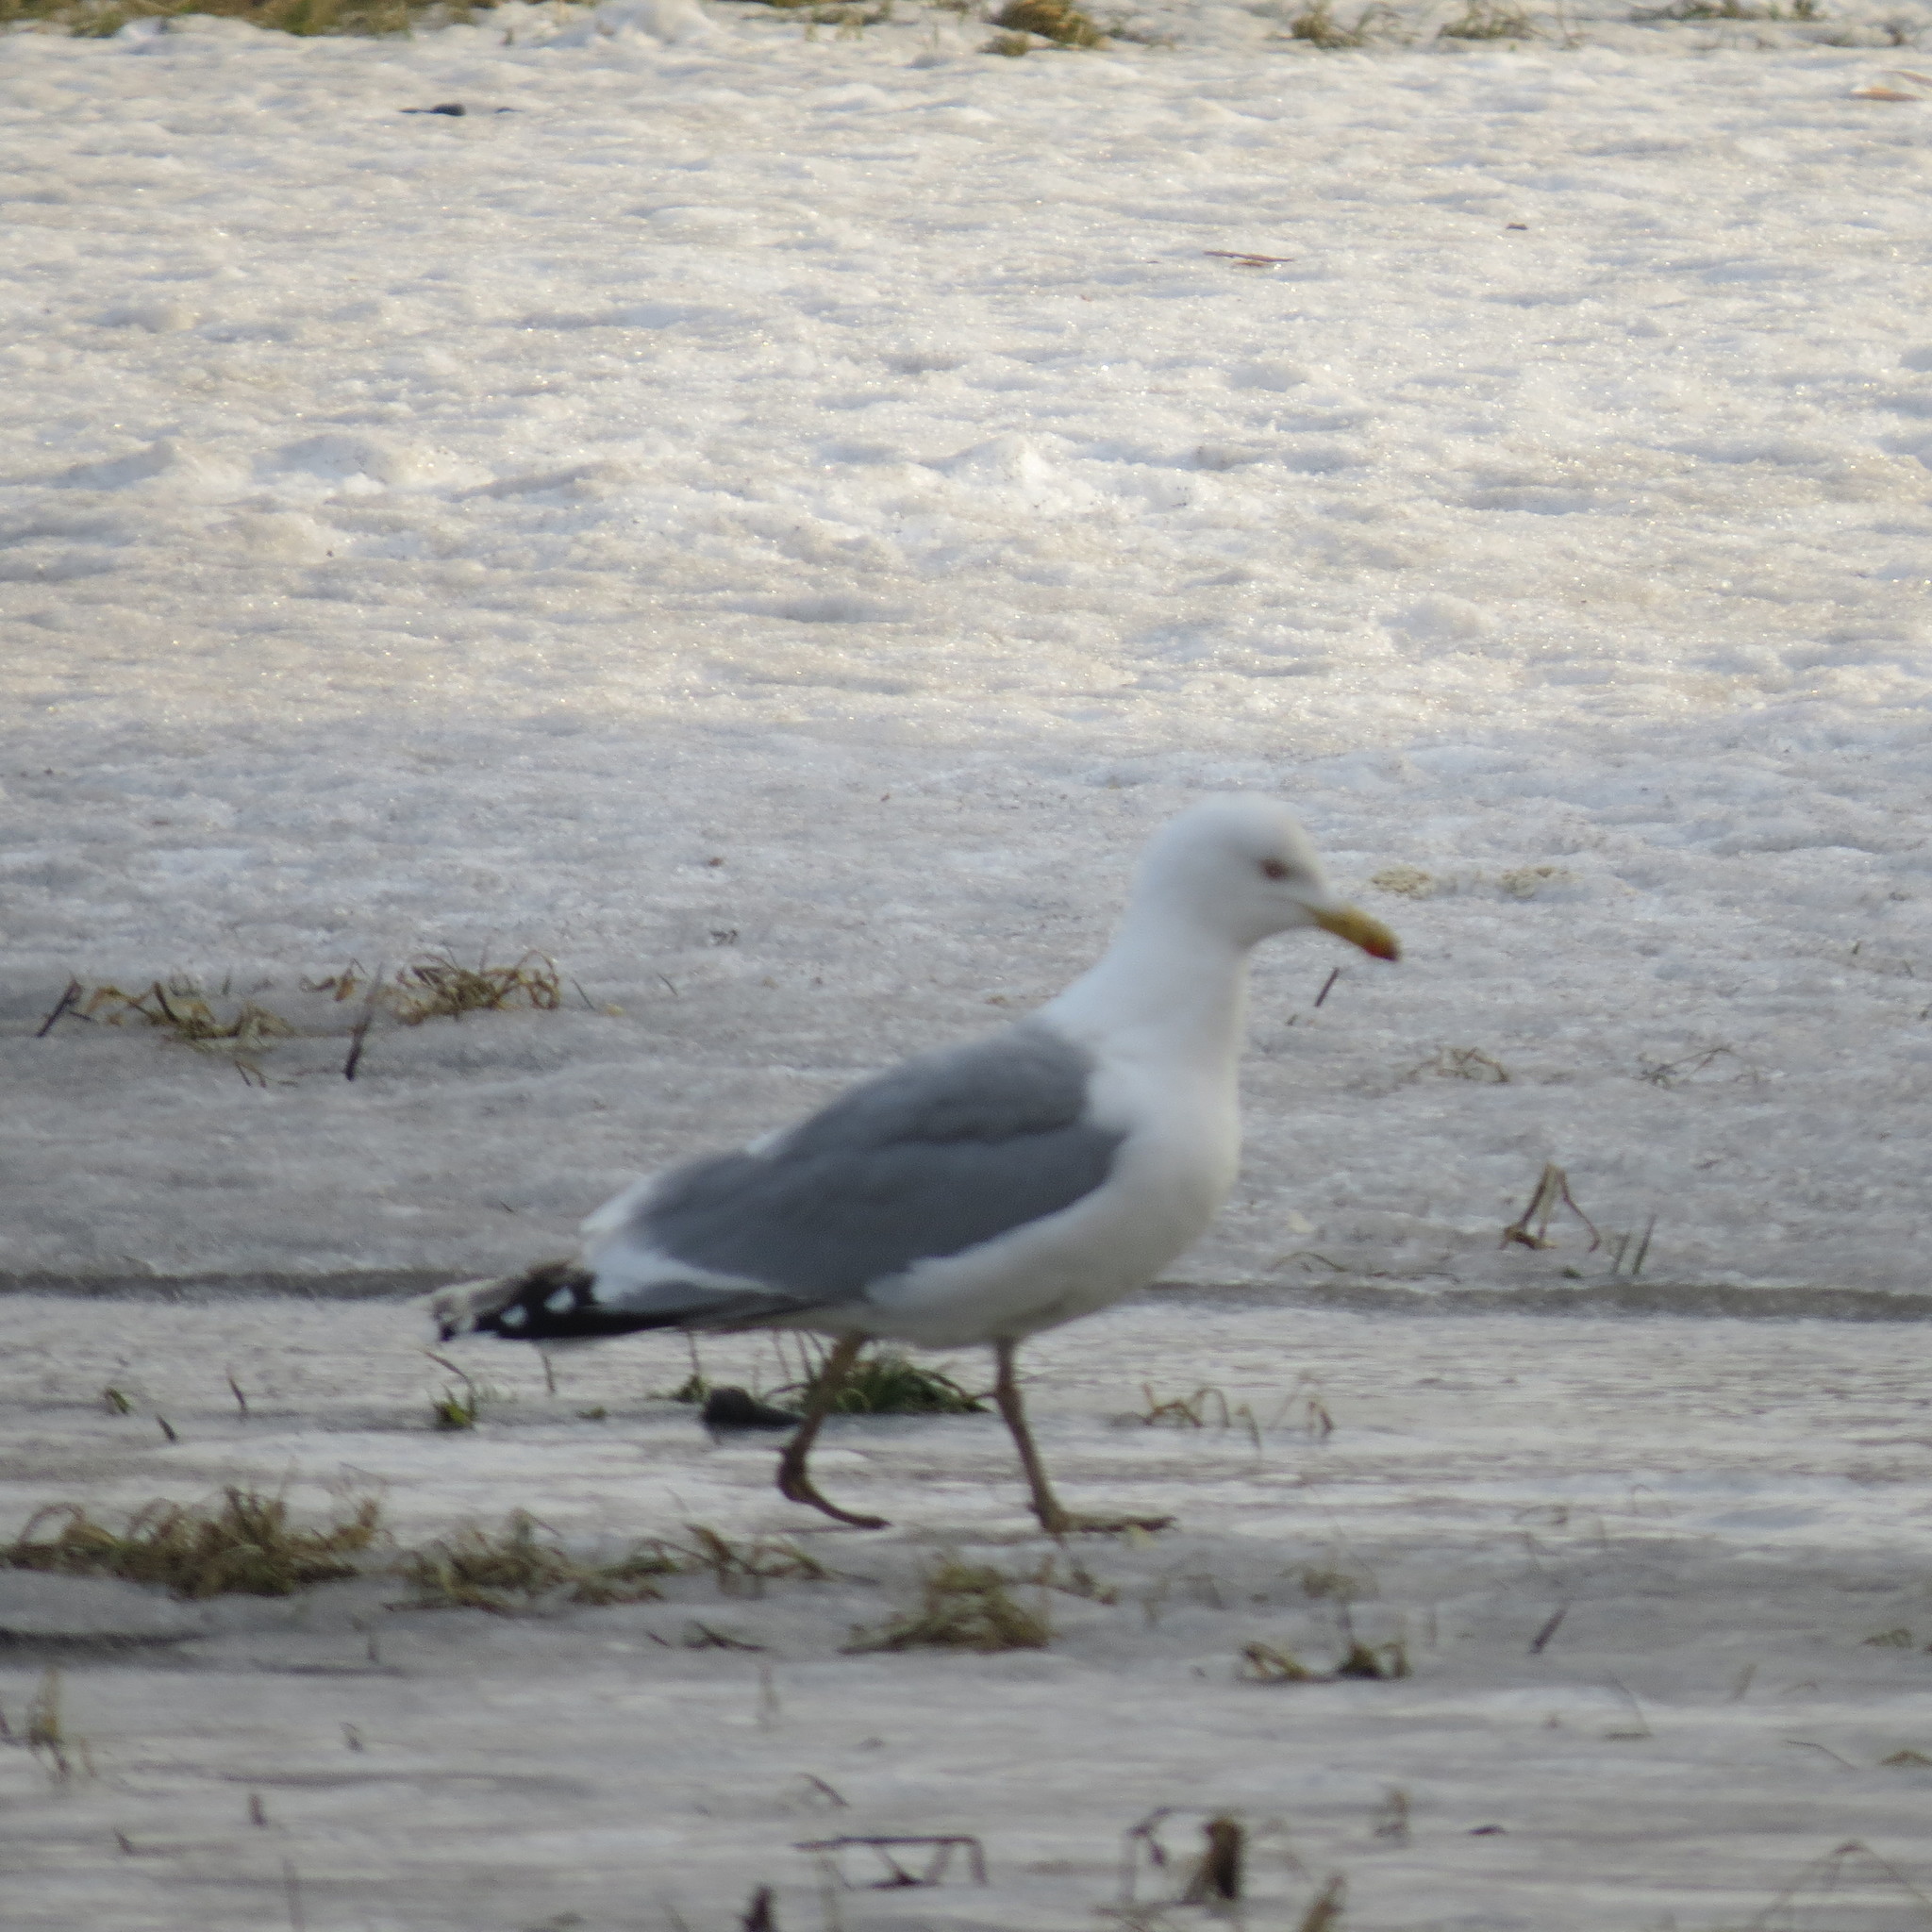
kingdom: Animalia
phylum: Chordata
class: Aves
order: Charadriiformes
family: Laridae
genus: Larus
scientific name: Larus argentatus
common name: Herring gull
